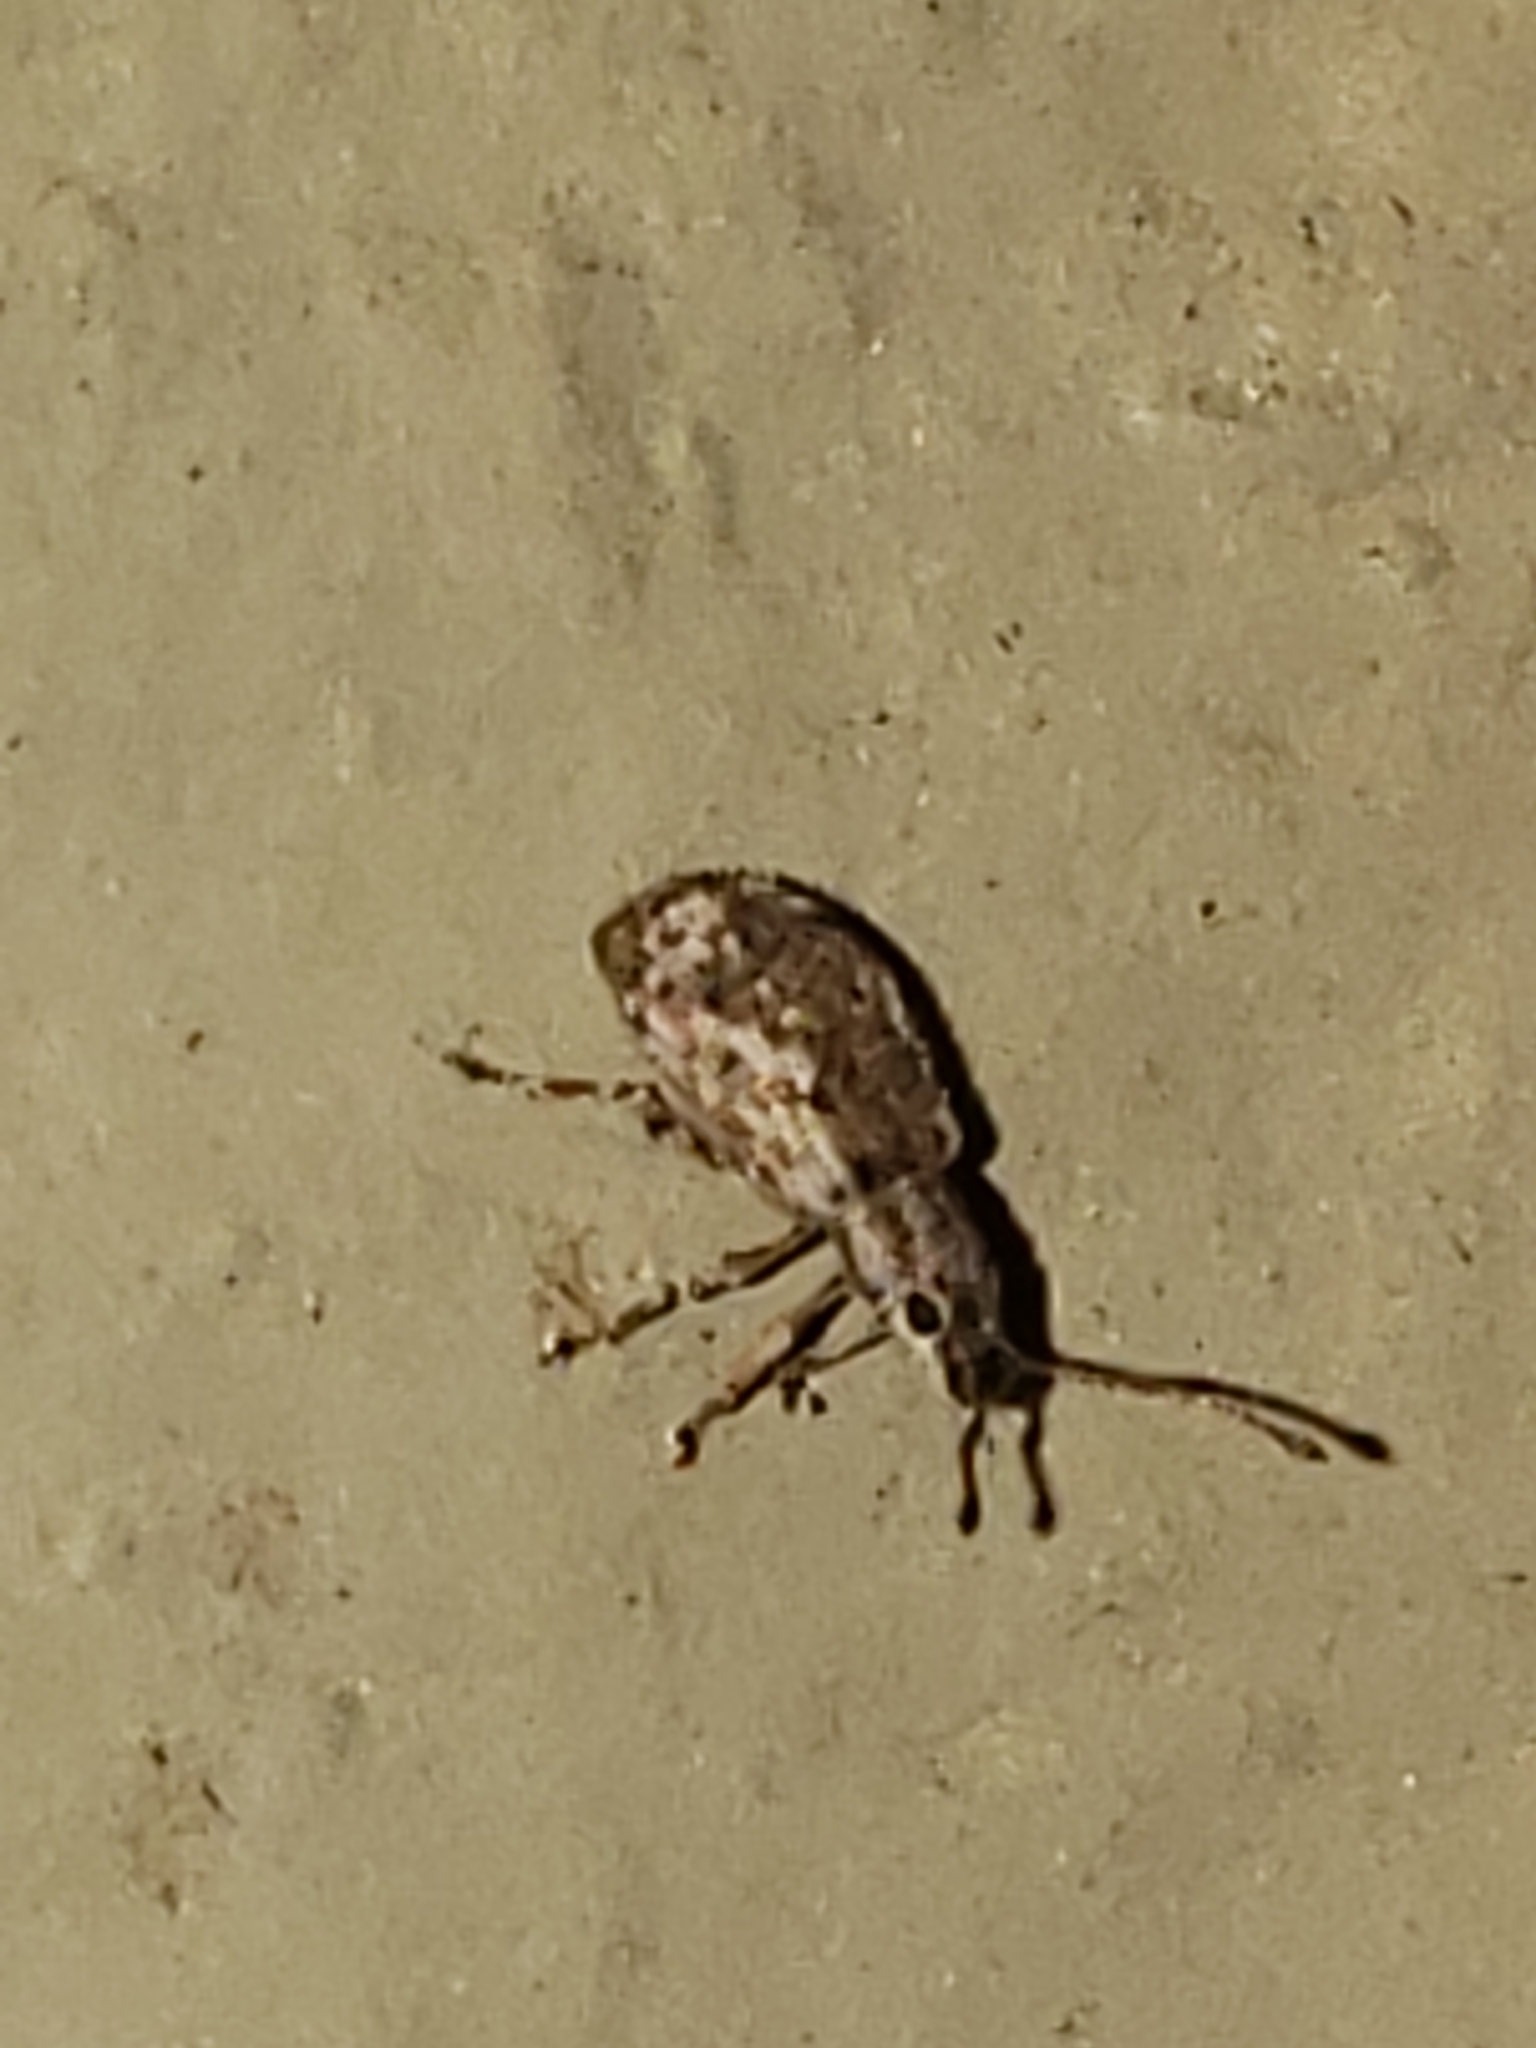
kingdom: Animalia
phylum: Arthropoda
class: Insecta
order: Coleoptera
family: Curculionidae
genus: Pseudoedophrys
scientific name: Pseudoedophrys hilleri
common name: Weevil
